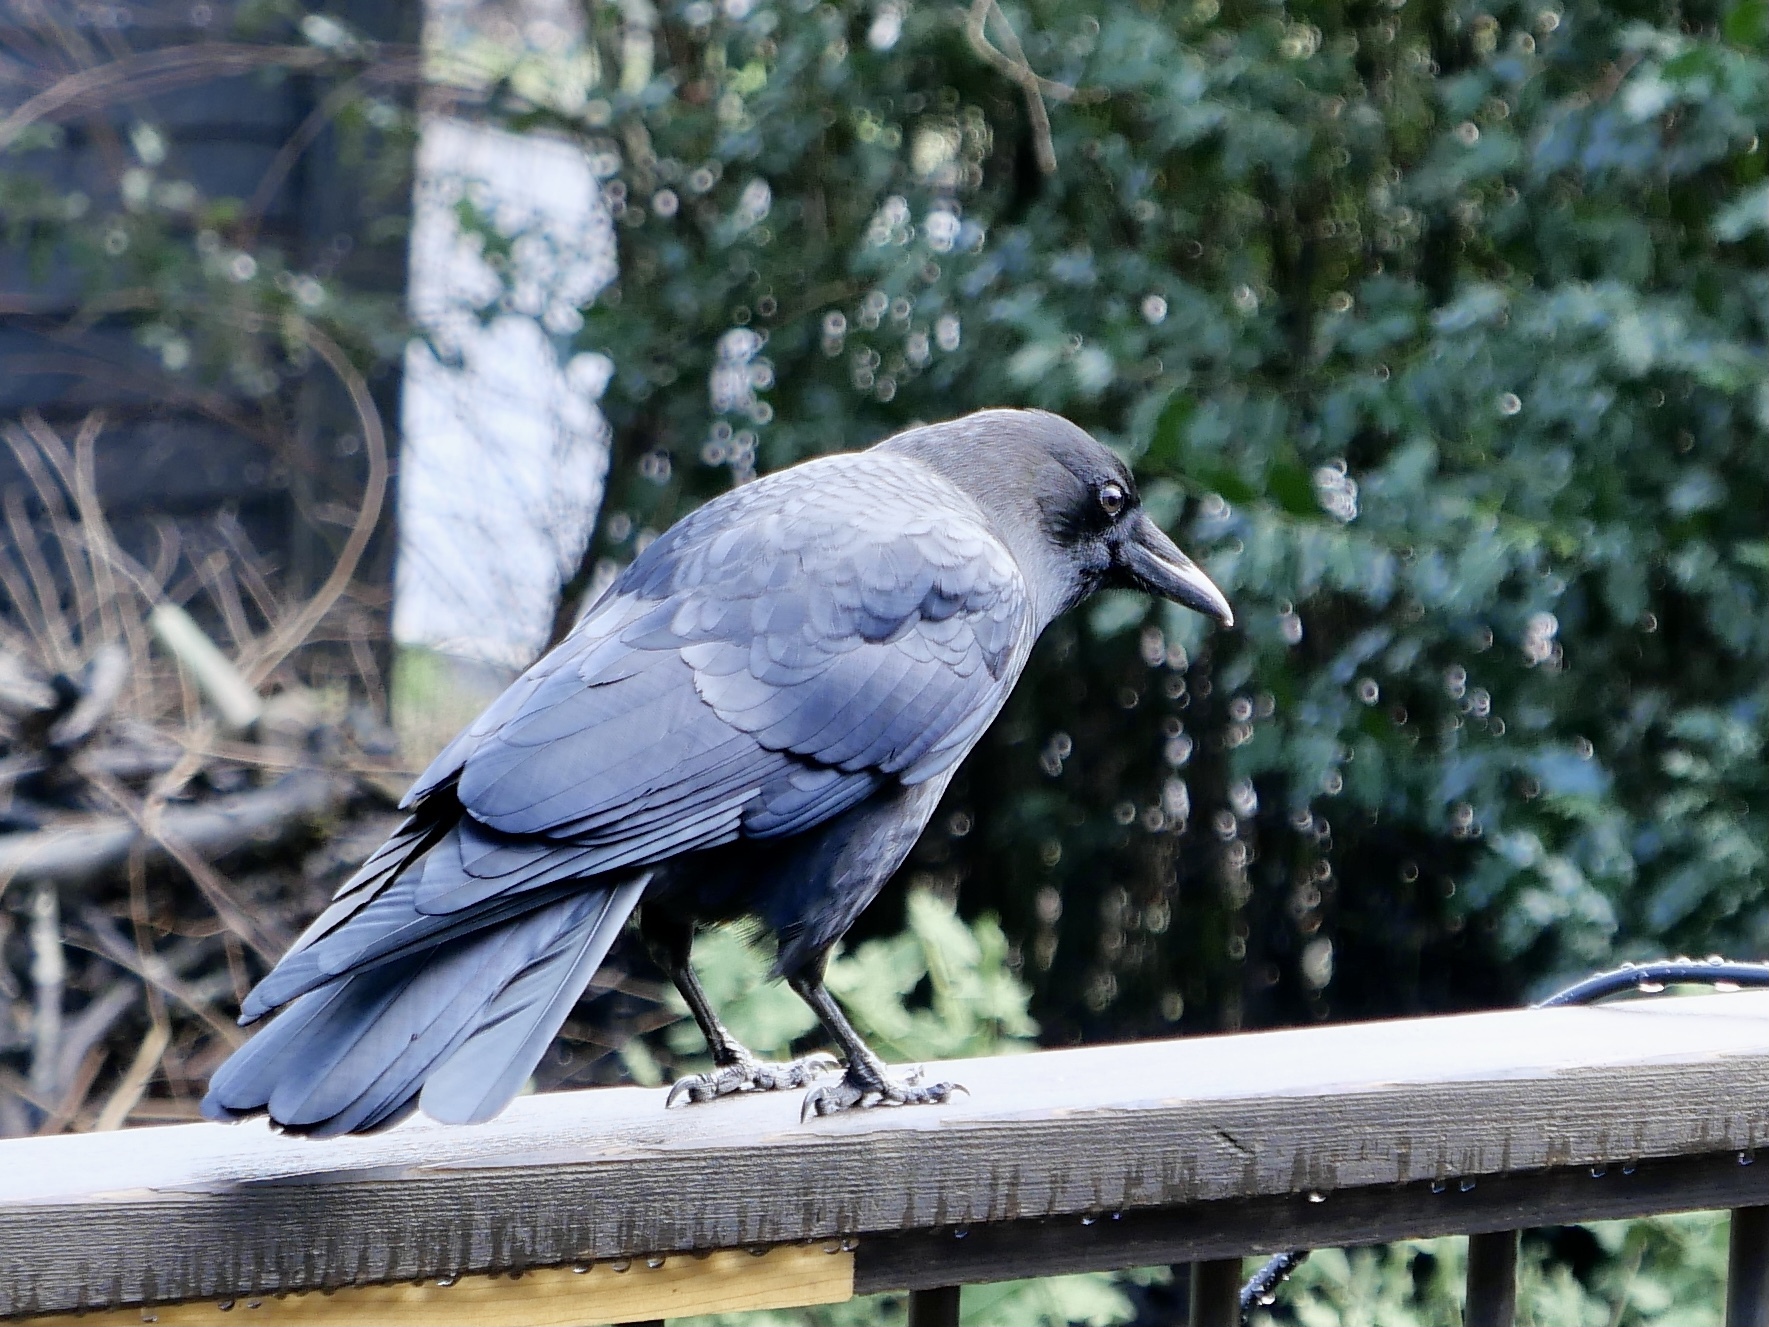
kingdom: Animalia
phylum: Chordata
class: Aves
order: Passeriformes
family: Corvidae
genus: Corvus
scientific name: Corvus brachyrhynchos
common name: American crow
